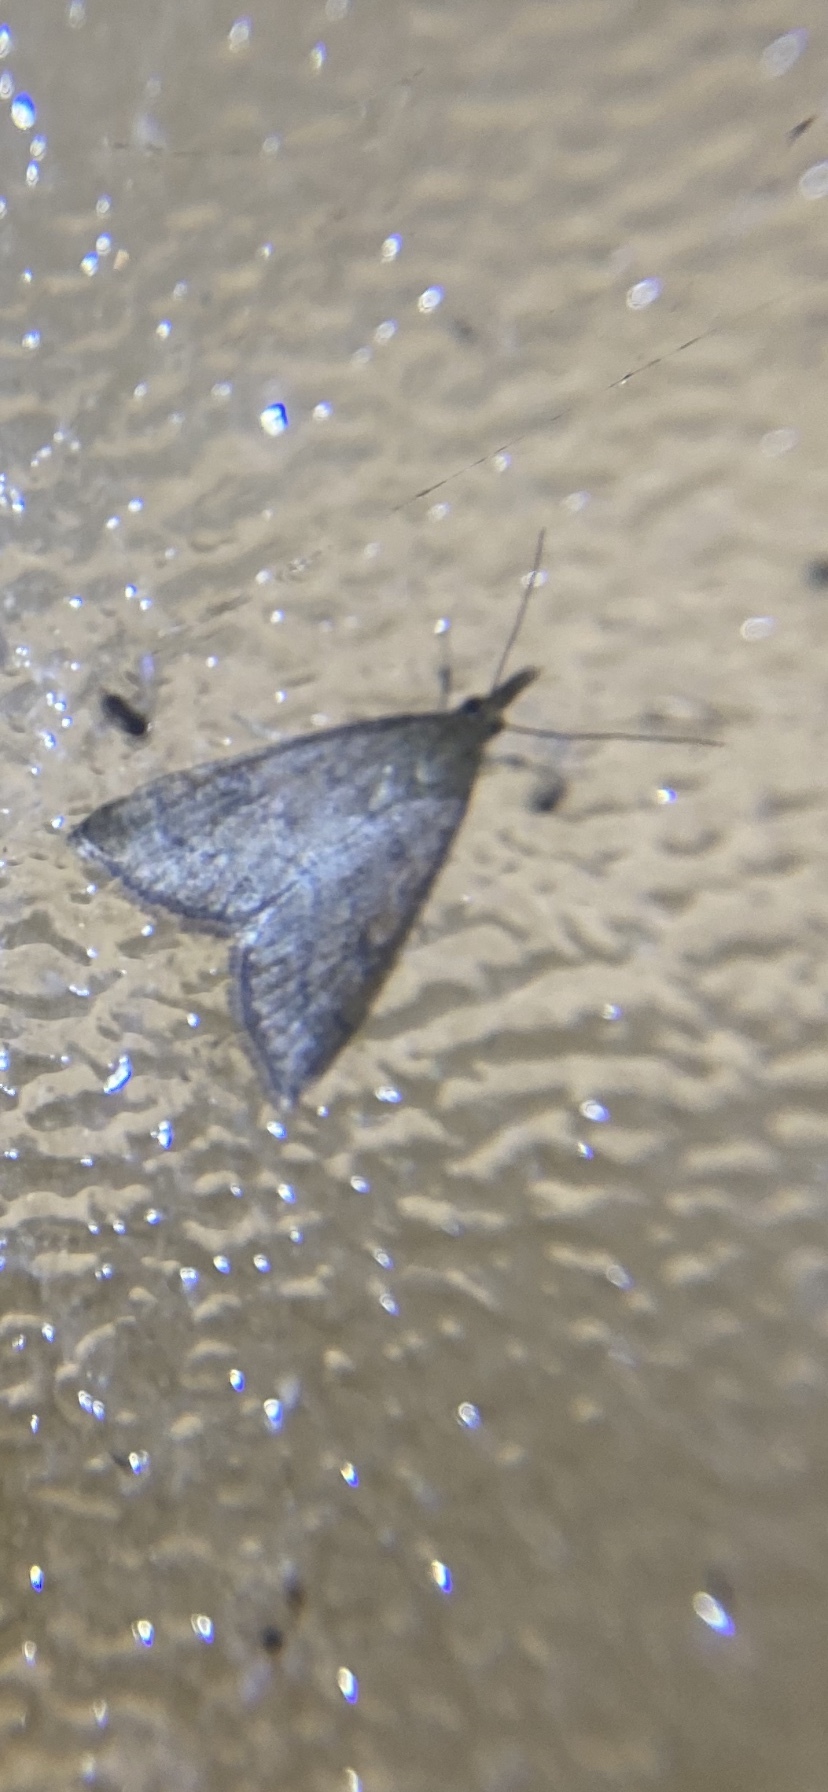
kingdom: Animalia
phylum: Arthropoda
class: Insecta
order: Lepidoptera
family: Crambidae
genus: Udea
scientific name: Udea rubigalis
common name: Celery leaftier moth
